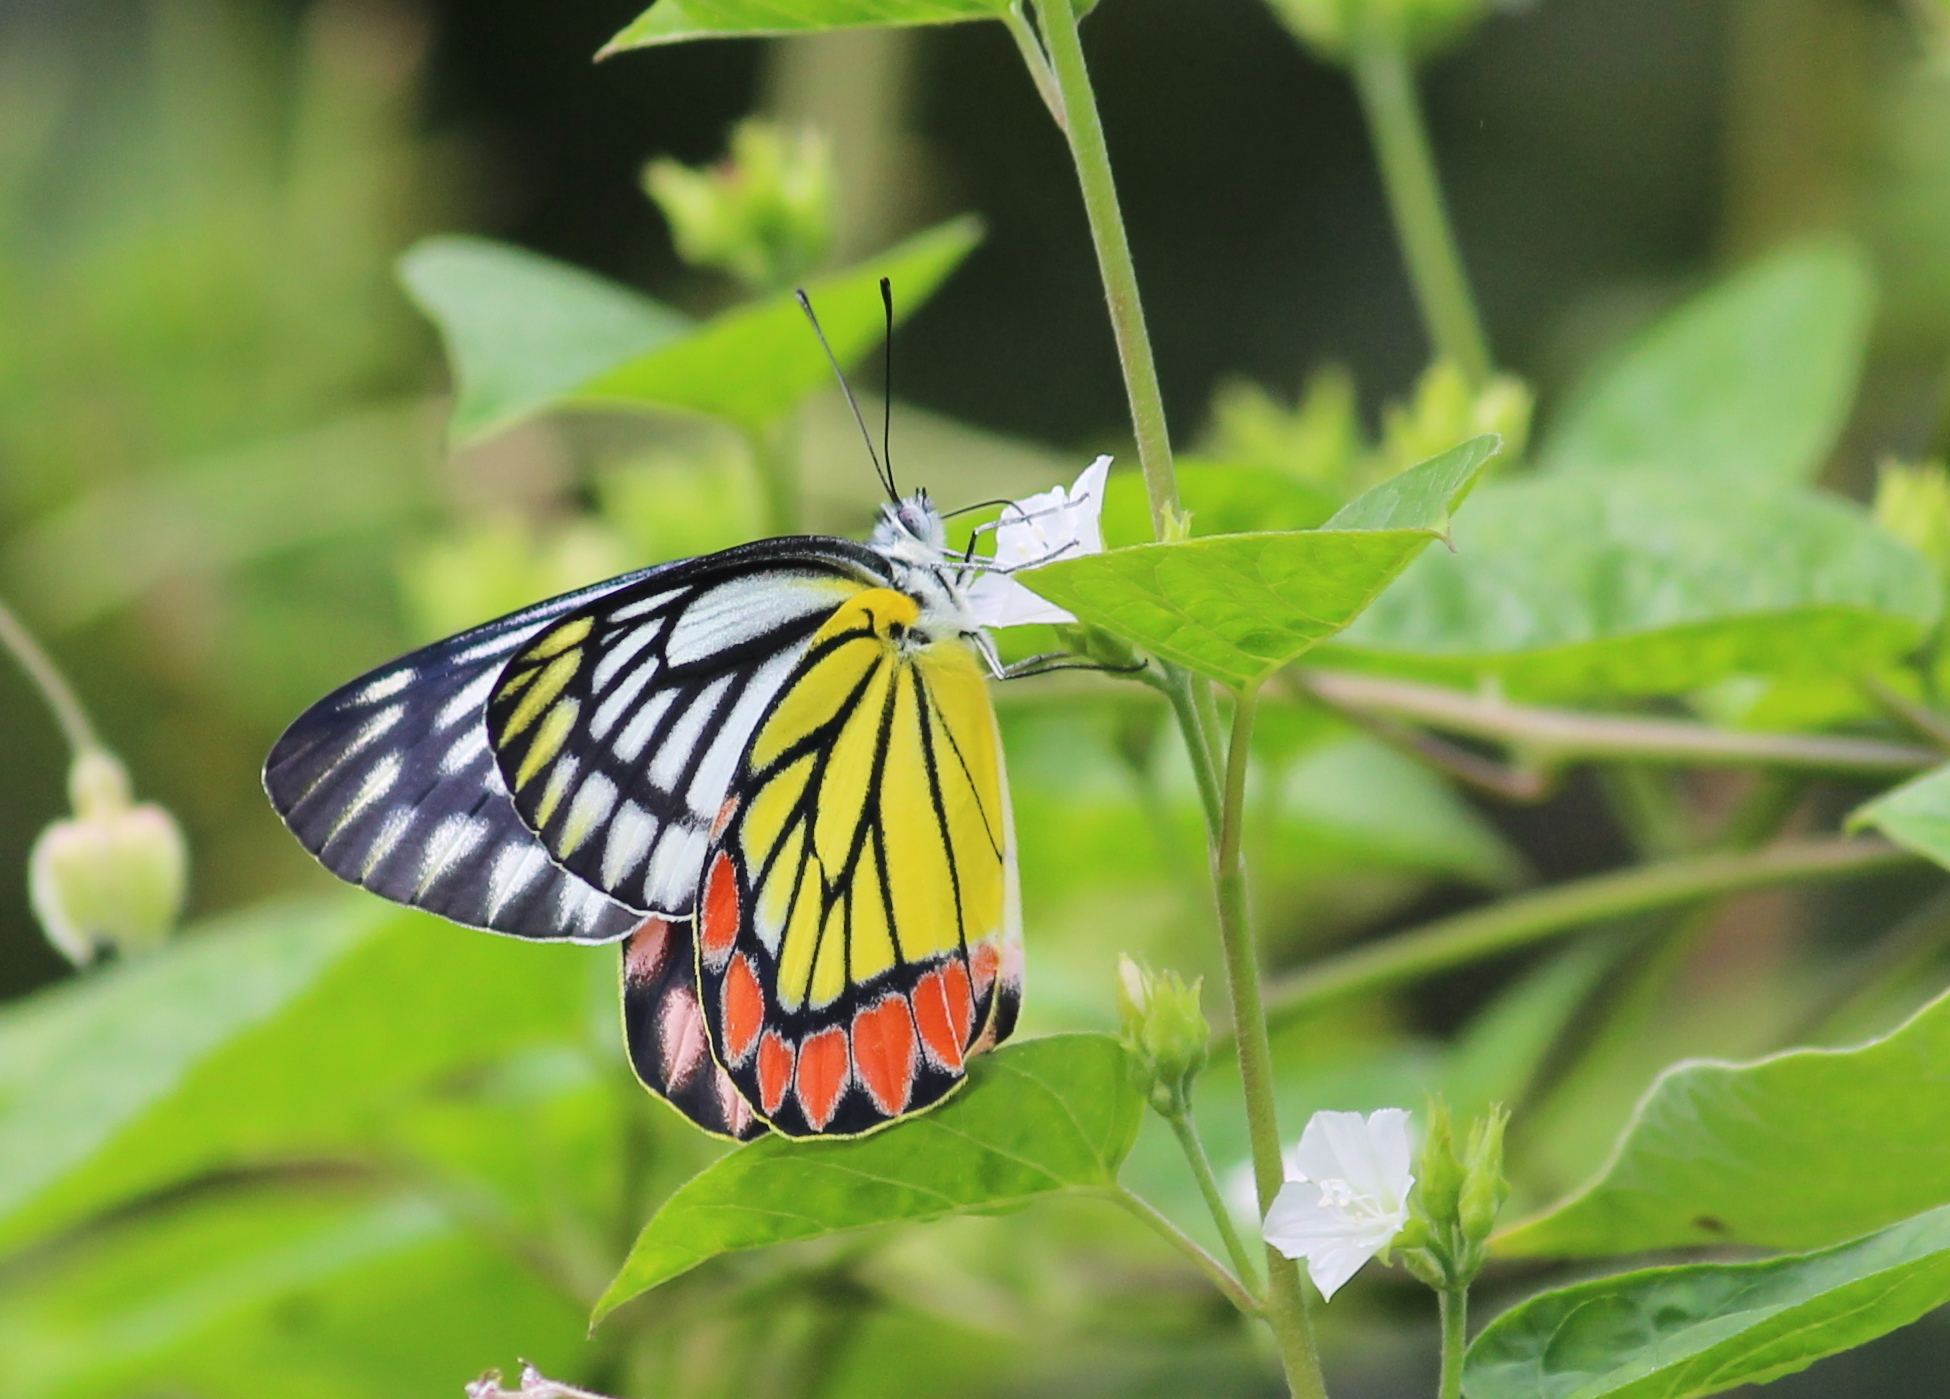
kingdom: Animalia
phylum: Arthropoda
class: Insecta
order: Lepidoptera
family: Pieridae
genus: Delias
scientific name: Delias eucharis
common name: Common jezebel
